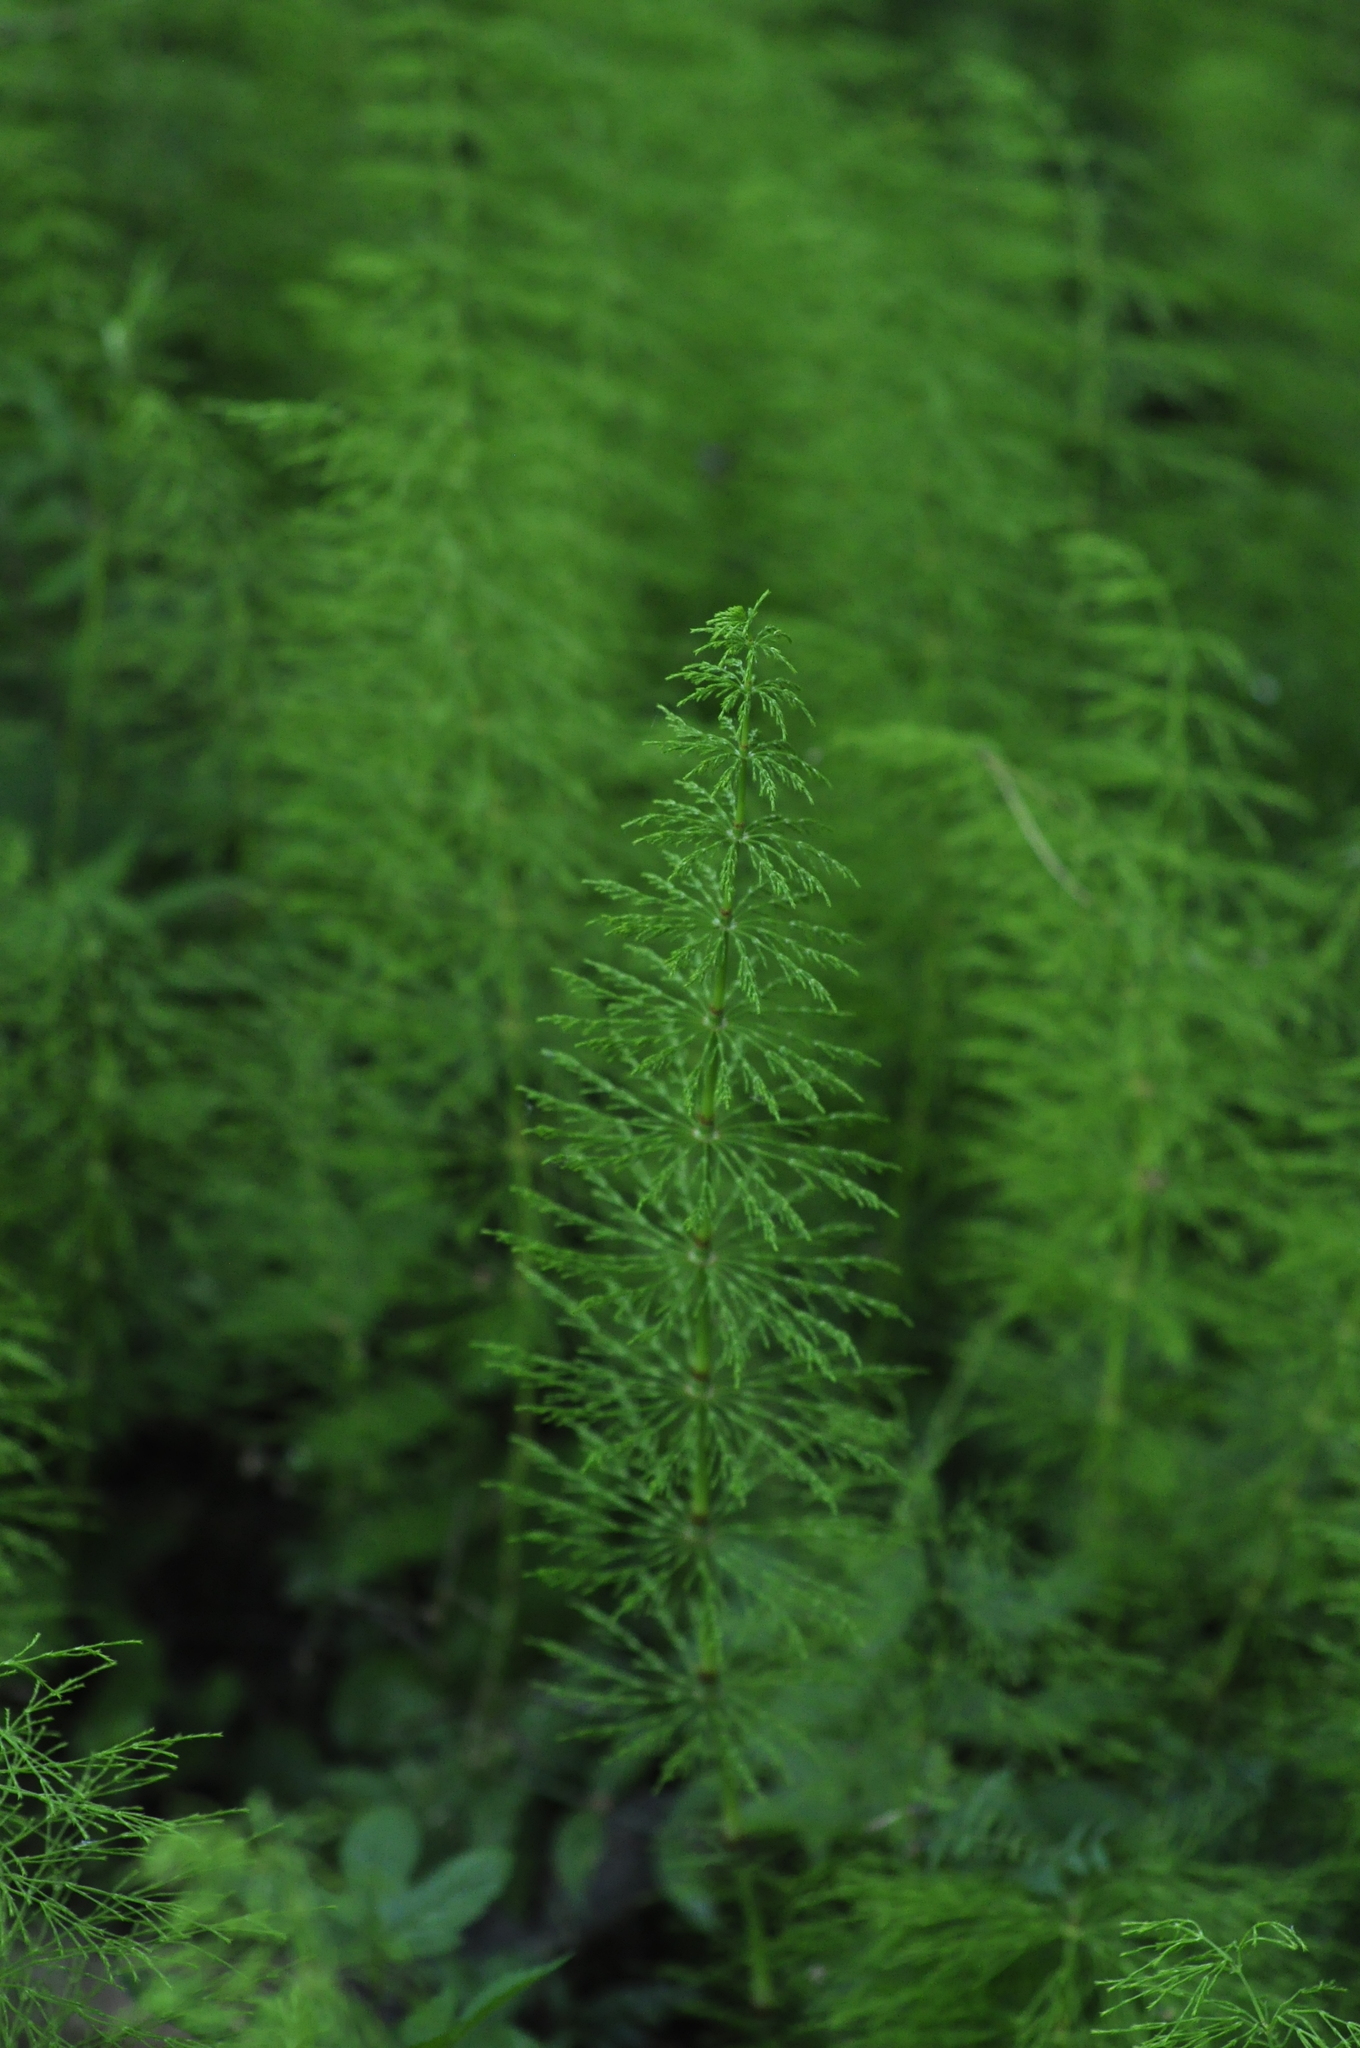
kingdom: Plantae
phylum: Tracheophyta
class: Polypodiopsida
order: Equisetales
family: Equisetaceae
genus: Equisetum
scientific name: Equisetum sylvaticum
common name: Wood horsetail
